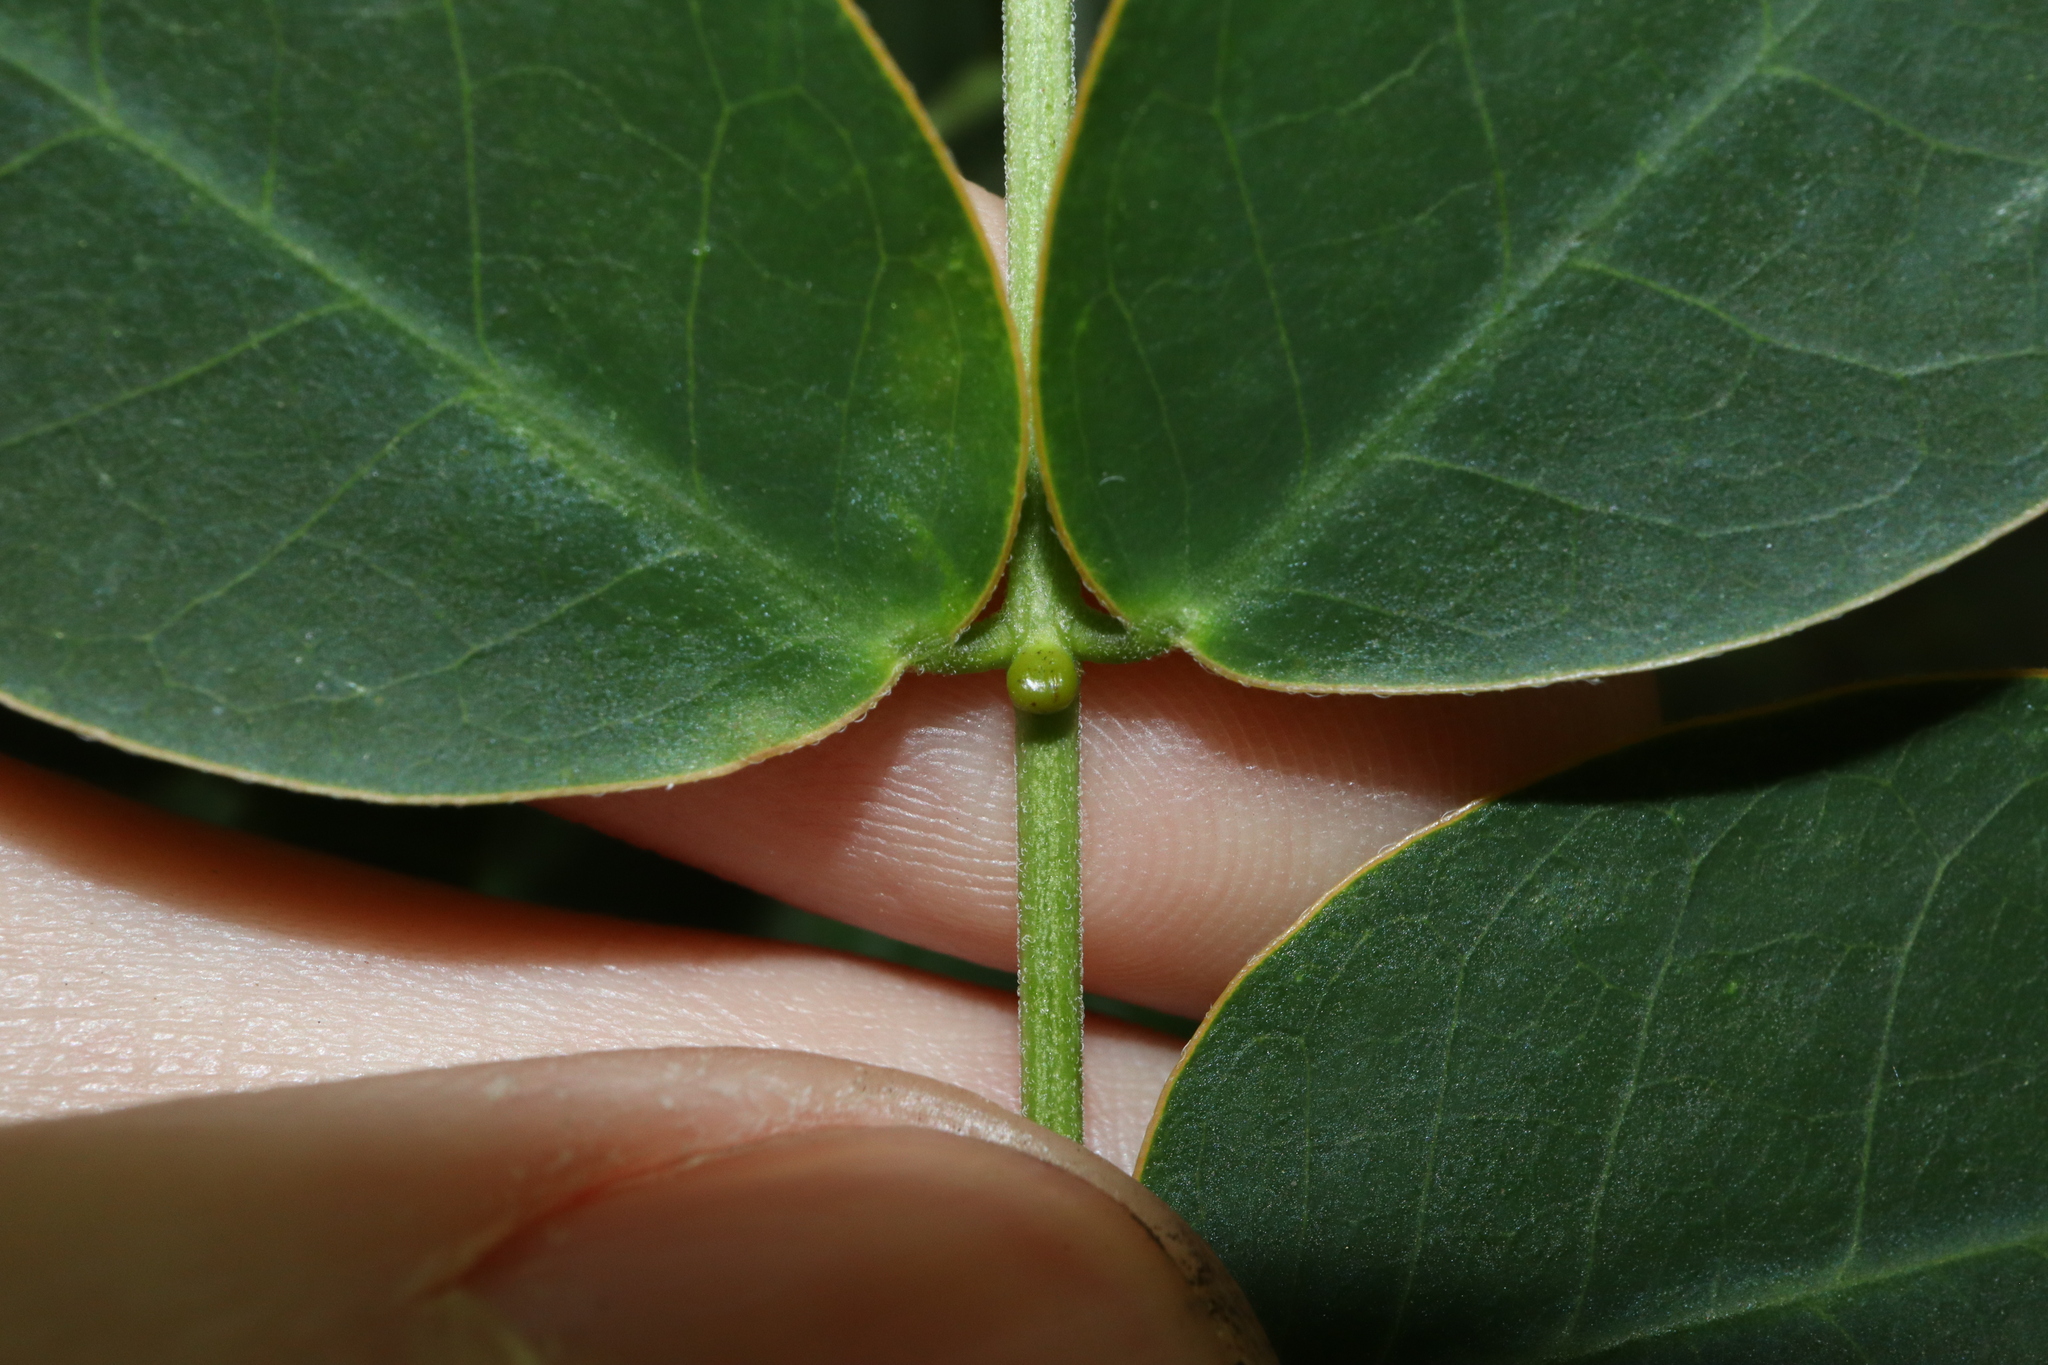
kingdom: Plantae
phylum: Tracheophyta
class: Magnoliopsida
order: Fabales
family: Fabaceae
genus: Senna
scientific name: Senna pendula
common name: Easter cassia
